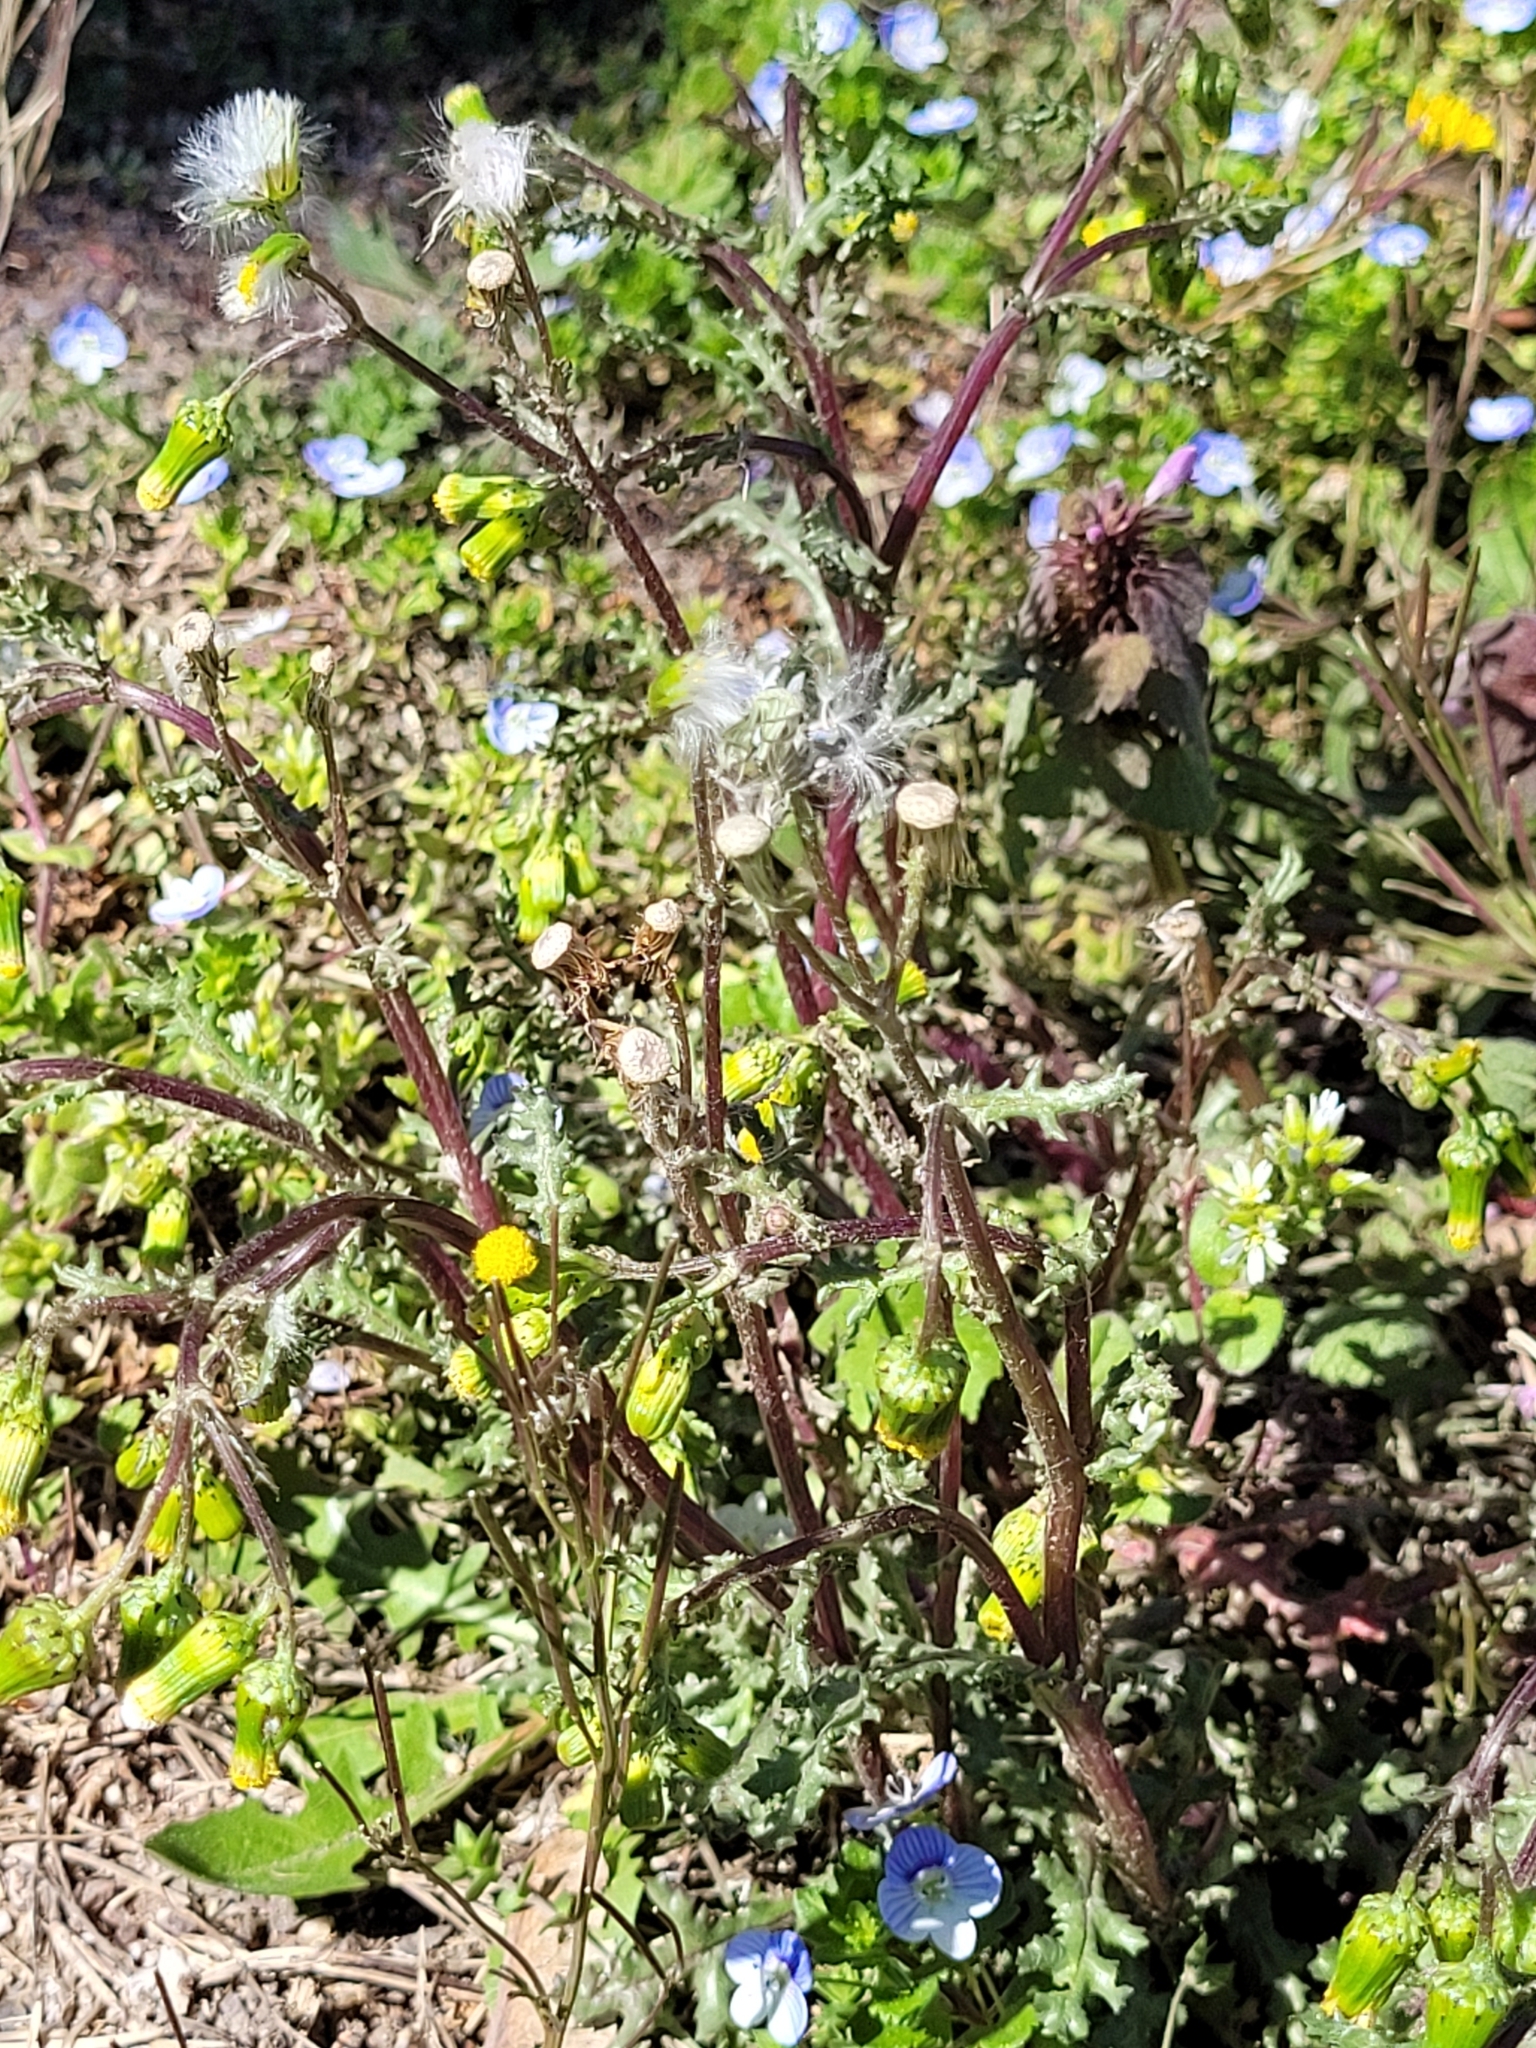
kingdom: Plantae
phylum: Tracheophyta
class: Magnoliopsida
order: Asterales
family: Asteraceae
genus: Senecio
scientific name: Senecio vulgaris
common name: Old-man-in-the-spring
